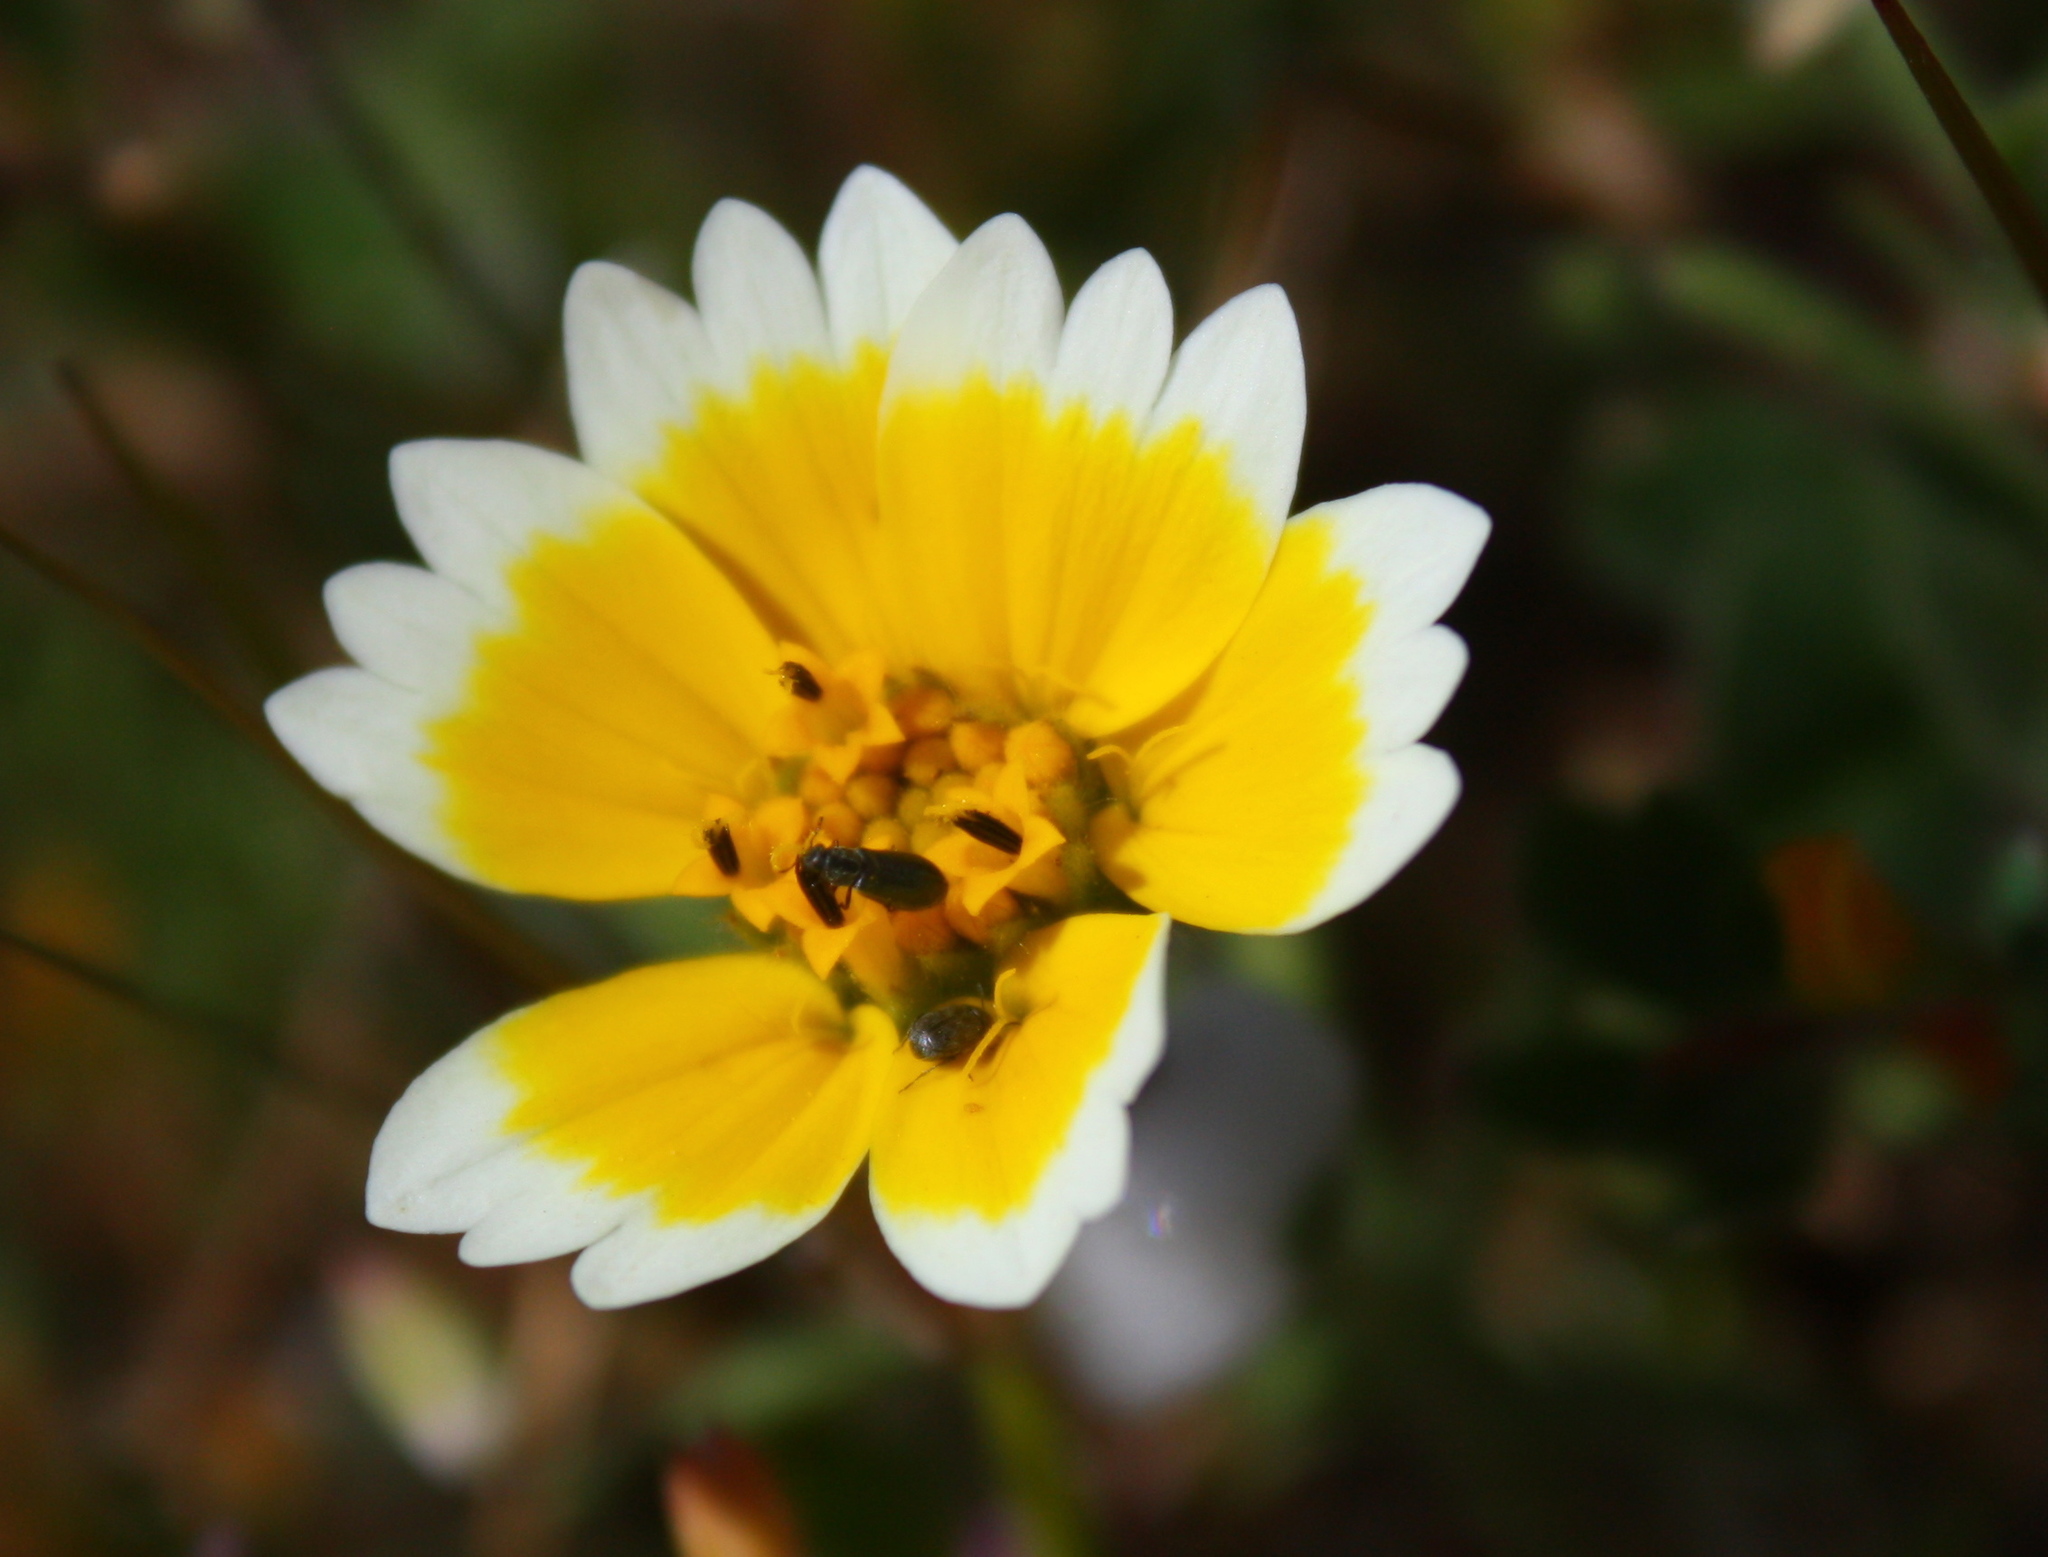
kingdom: Plantae
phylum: Tracheophyta
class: Magnoliopsida
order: Asterales
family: Asteraceae
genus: Layia
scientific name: Layia platyglossa
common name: Tidy-tips
